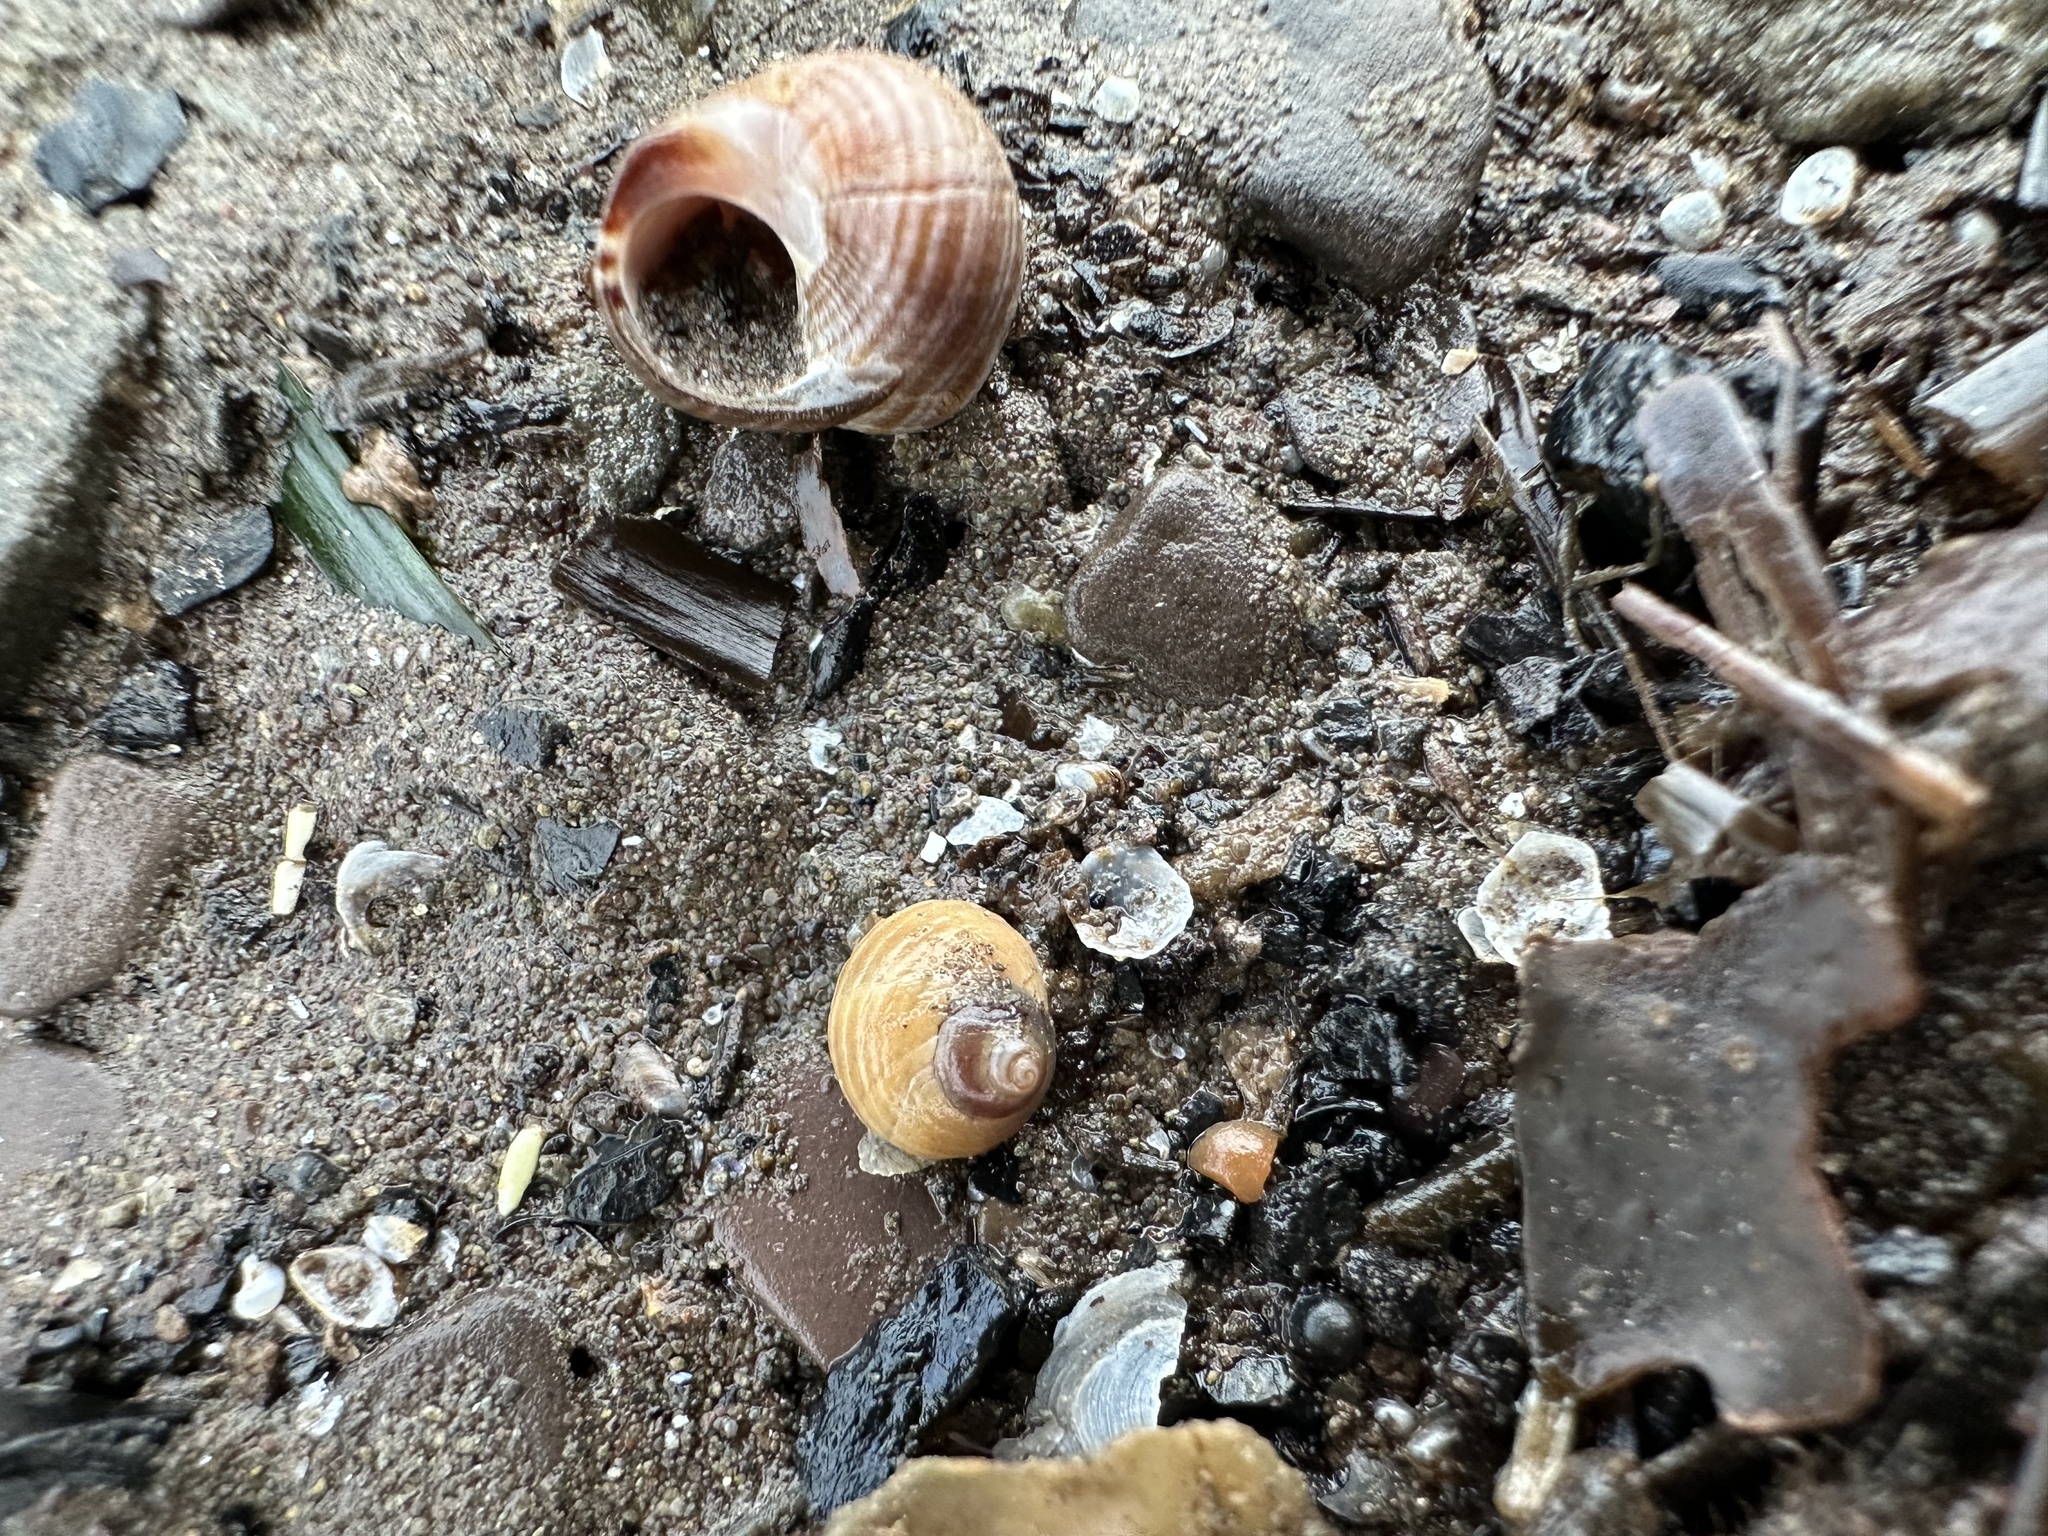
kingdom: Animalia
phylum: Mollusca
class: Gastropoda
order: Littorinimorpha
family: Littorinidae
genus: Littorina
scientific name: Littorina obtusata
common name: Flat periwinkle
